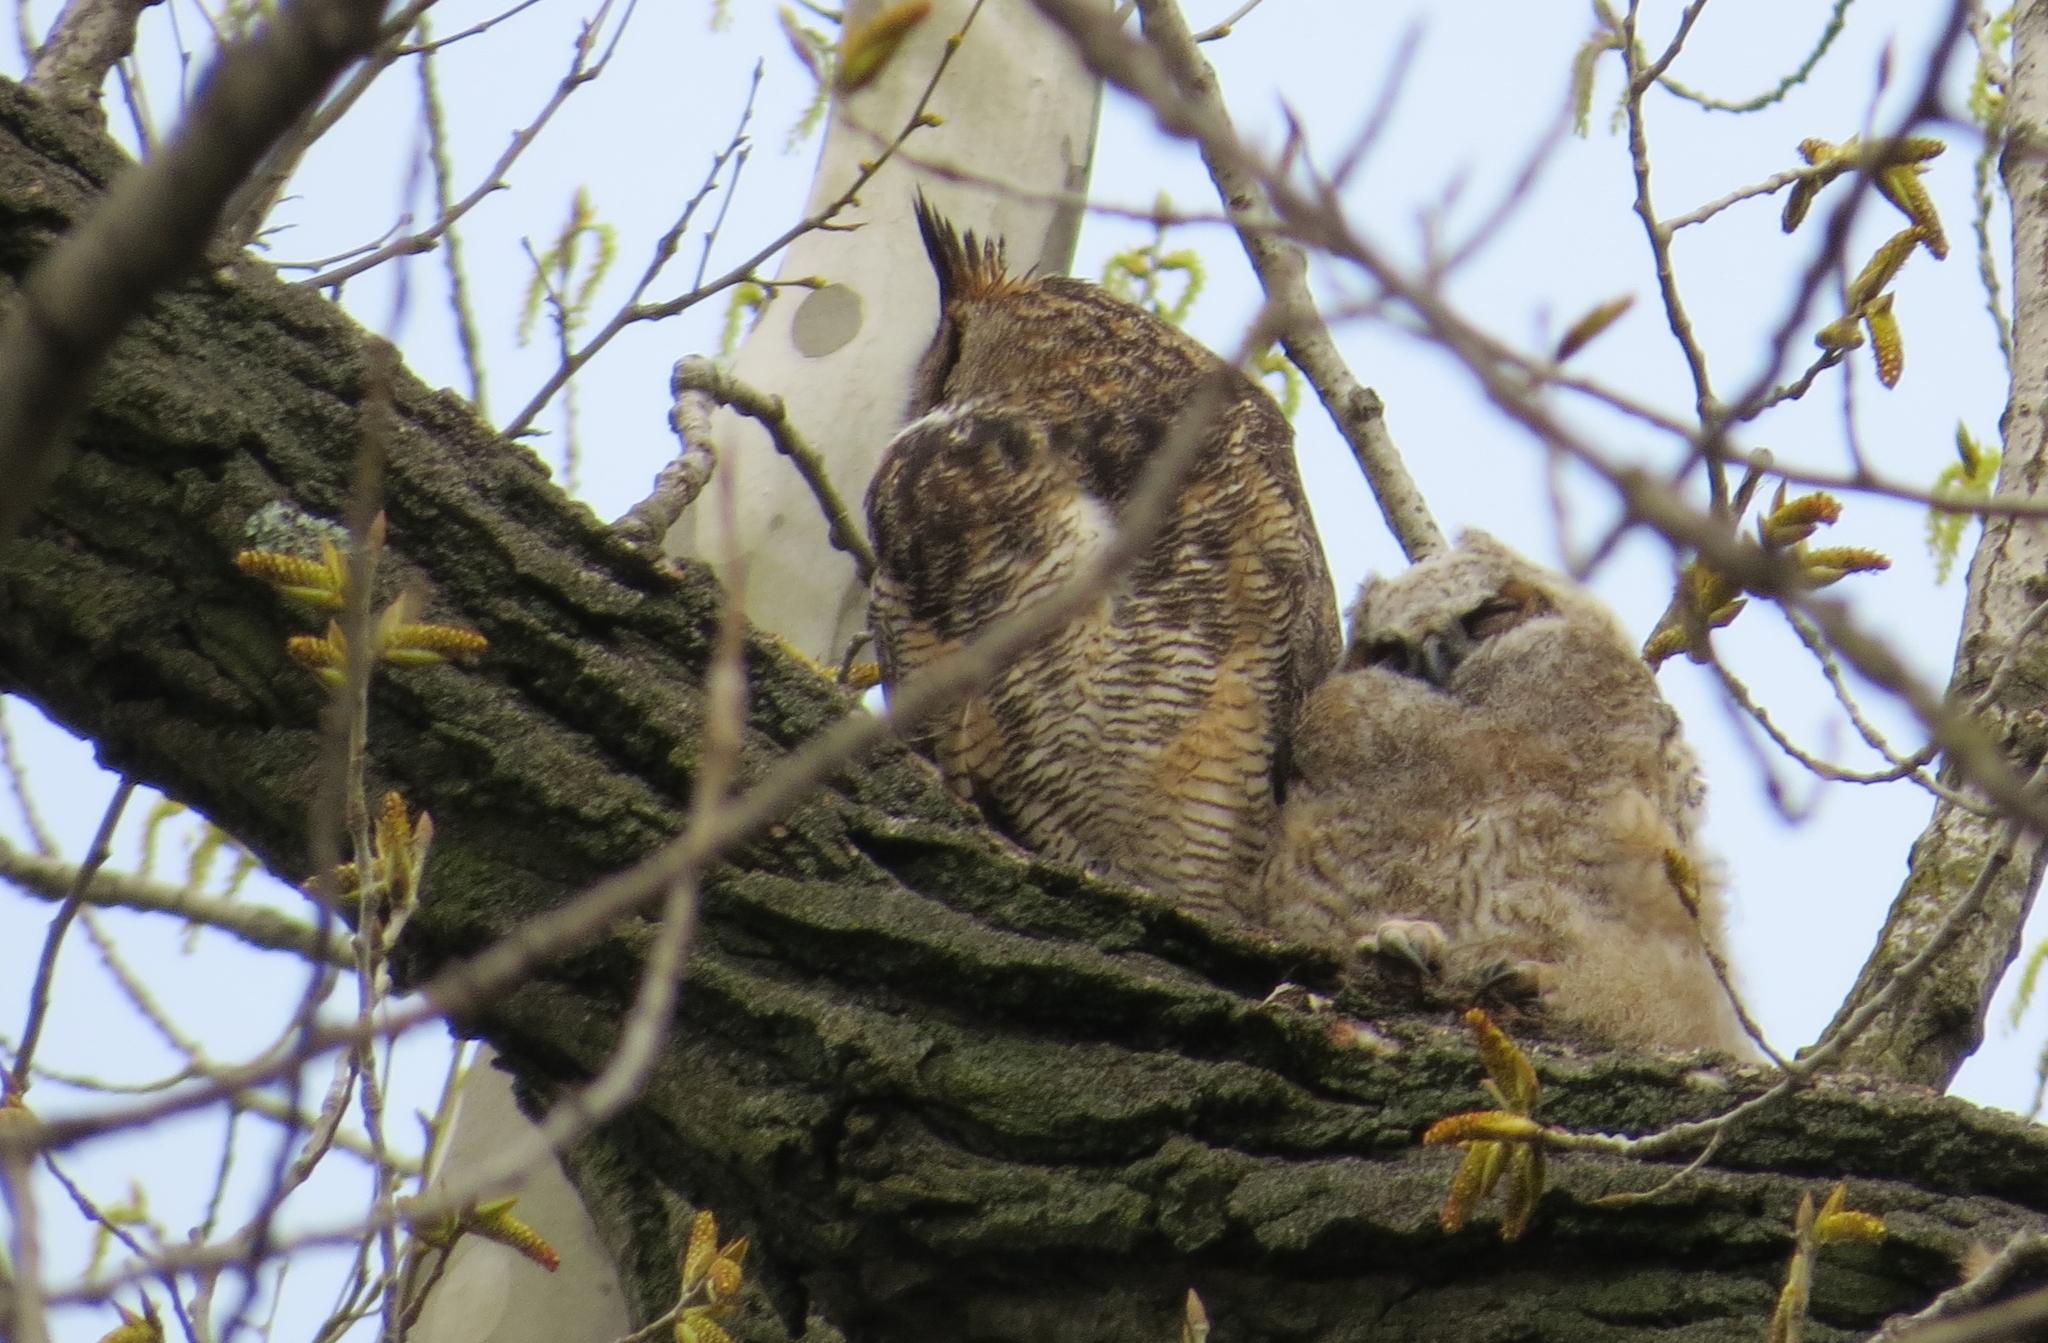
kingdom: Animalia
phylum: Chordata
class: Aves
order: Strigiformes
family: Strigidae
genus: Bubo
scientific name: Bubo virginianus
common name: Great horned owl
